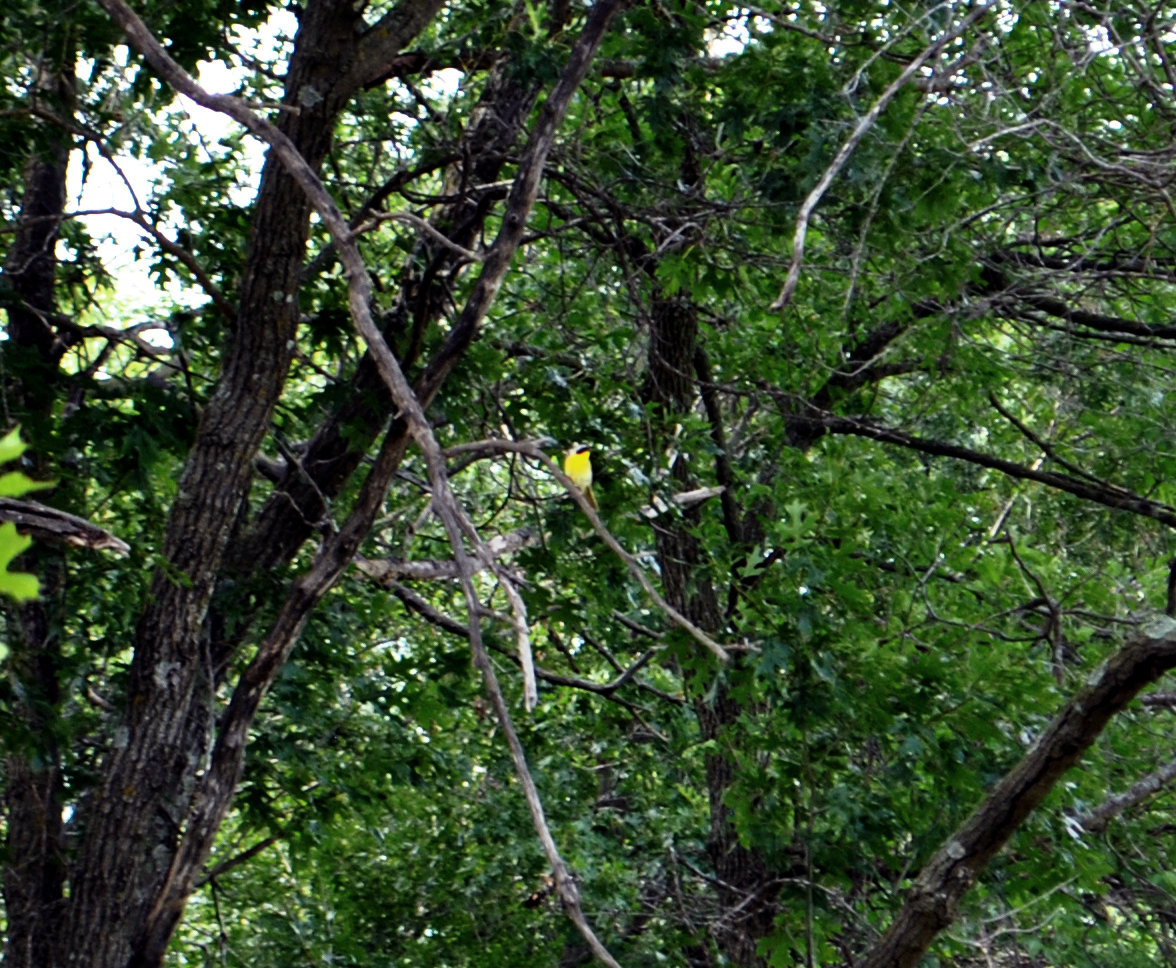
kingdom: Animalia
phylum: Chordata
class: Aves
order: Passeriformes
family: Parulidae
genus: Geothlypis
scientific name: Geothlypis trichas
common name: Common yellowthroat
